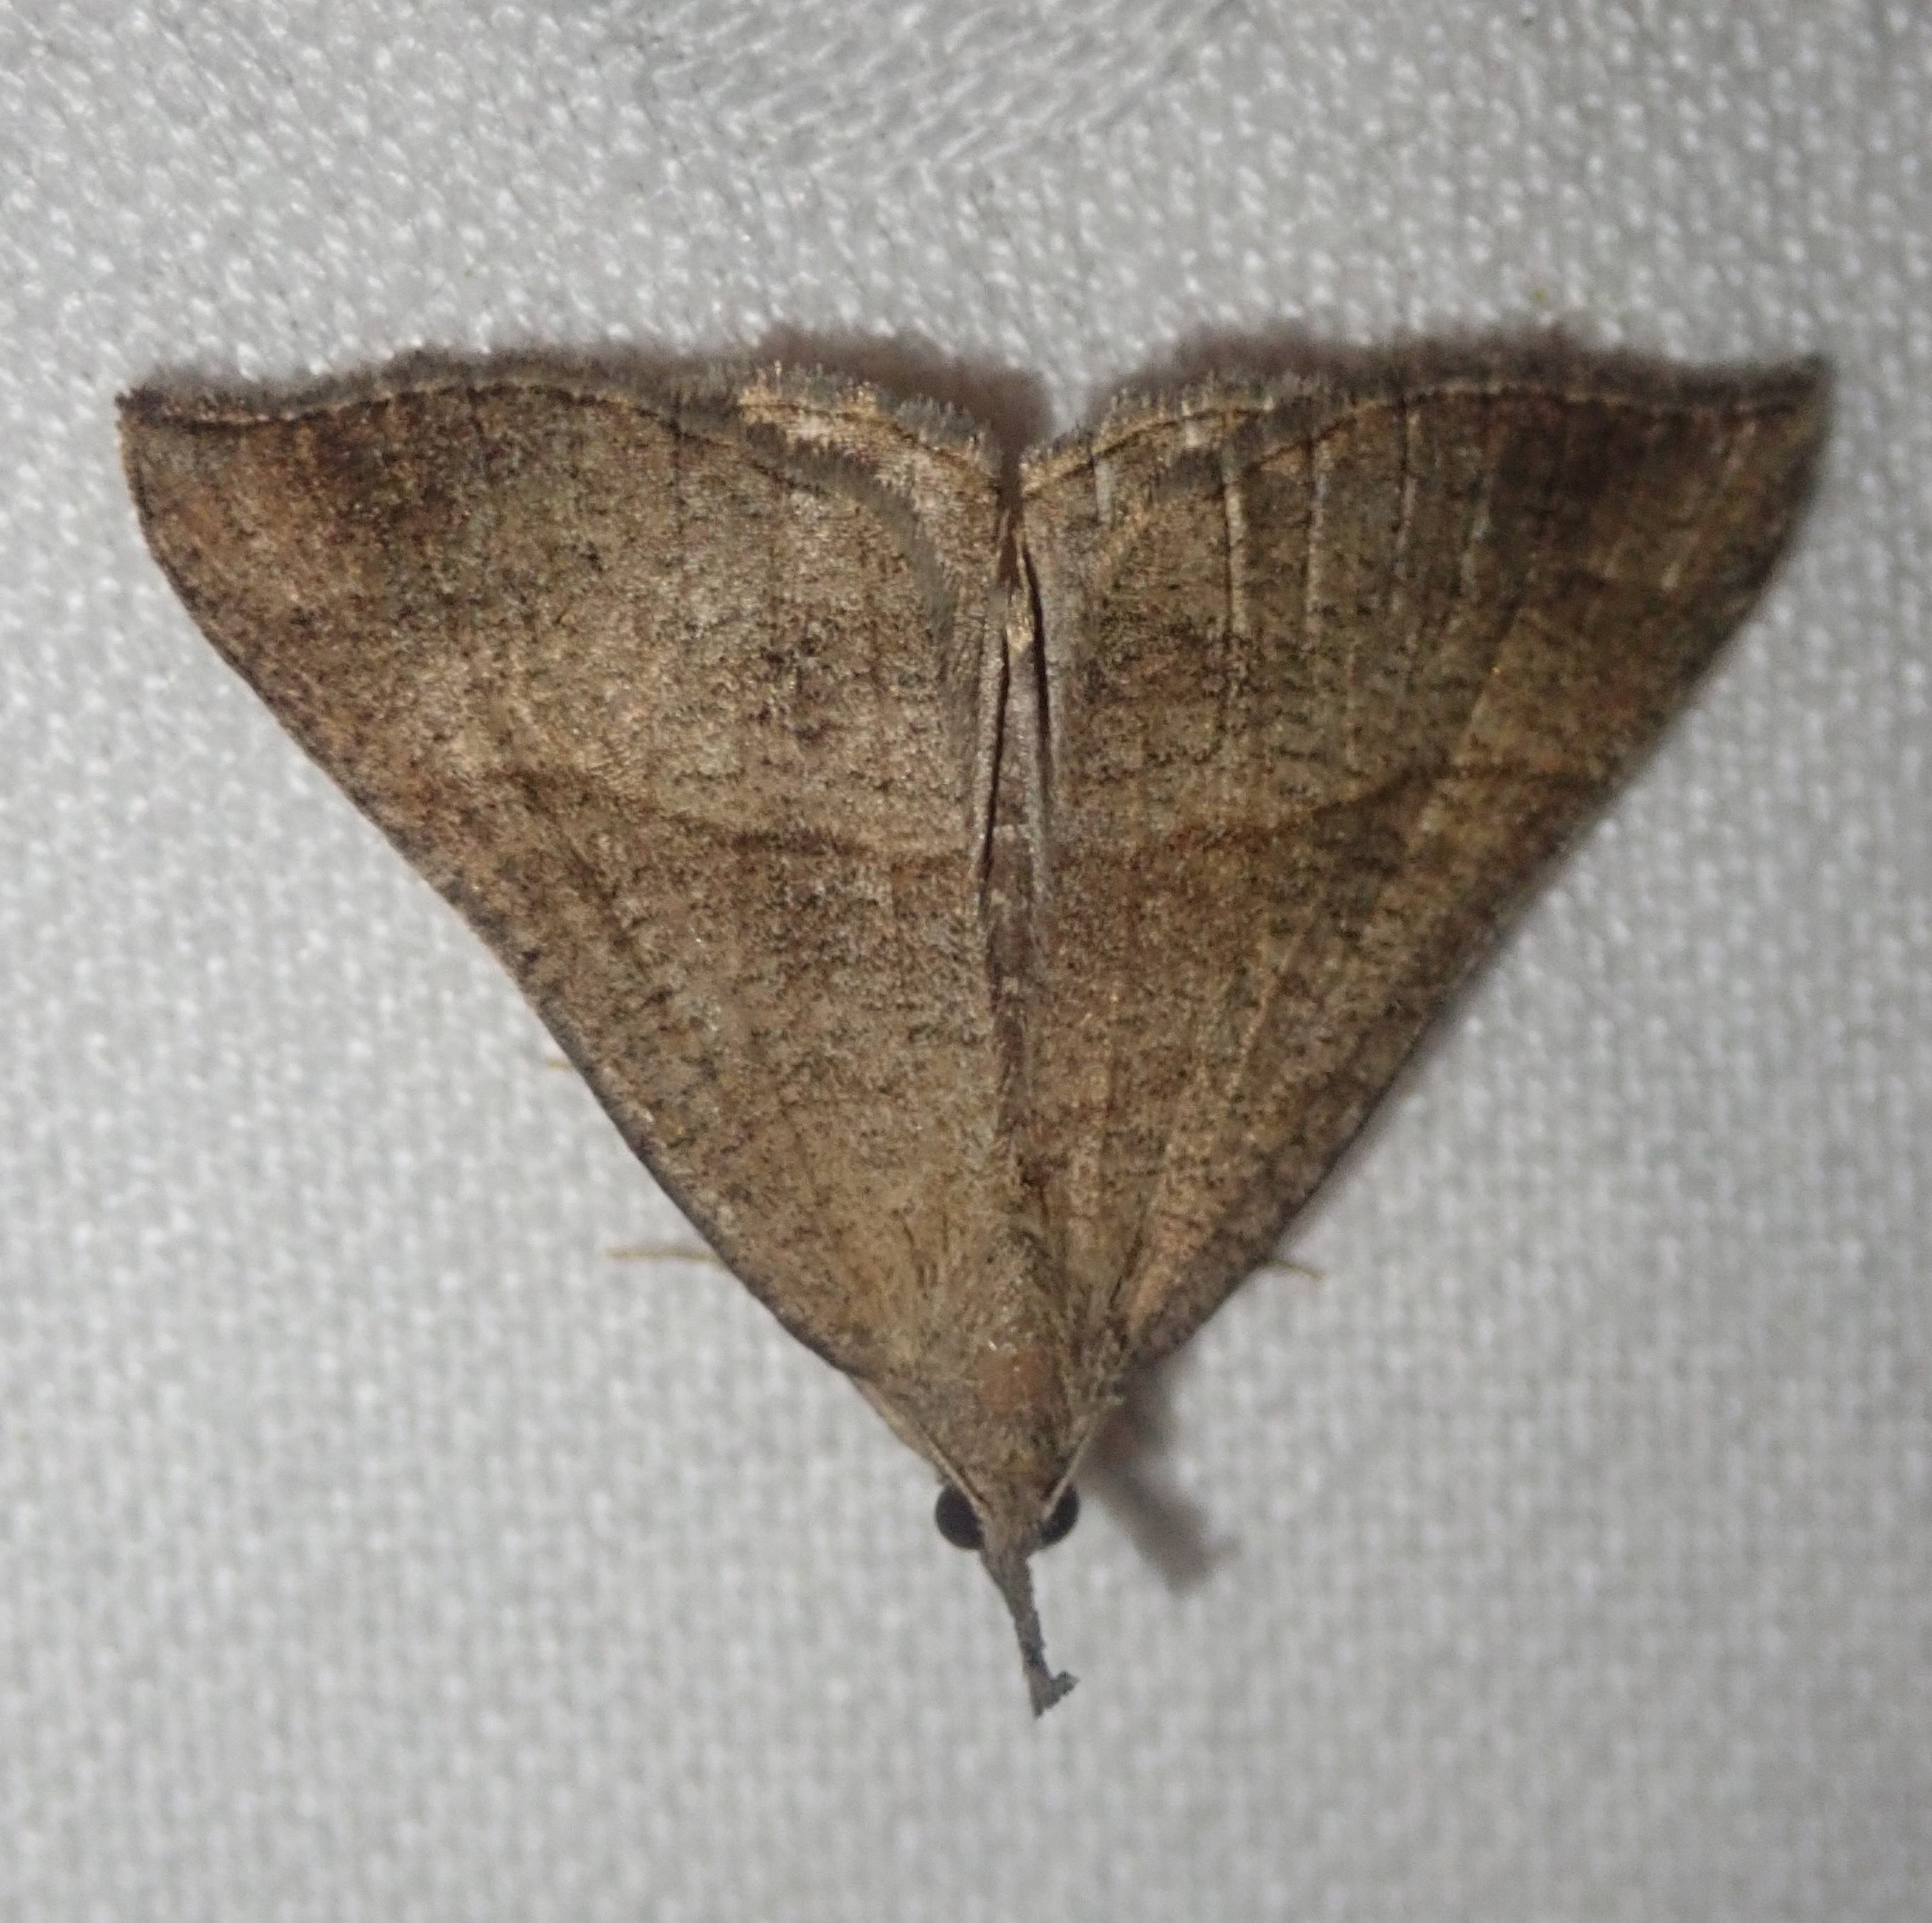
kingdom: Animalia
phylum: Arthropoda
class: Insecta
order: Lepidoptera
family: Erebidae
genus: Hypena
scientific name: Hypena proboscidalis
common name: Snout
